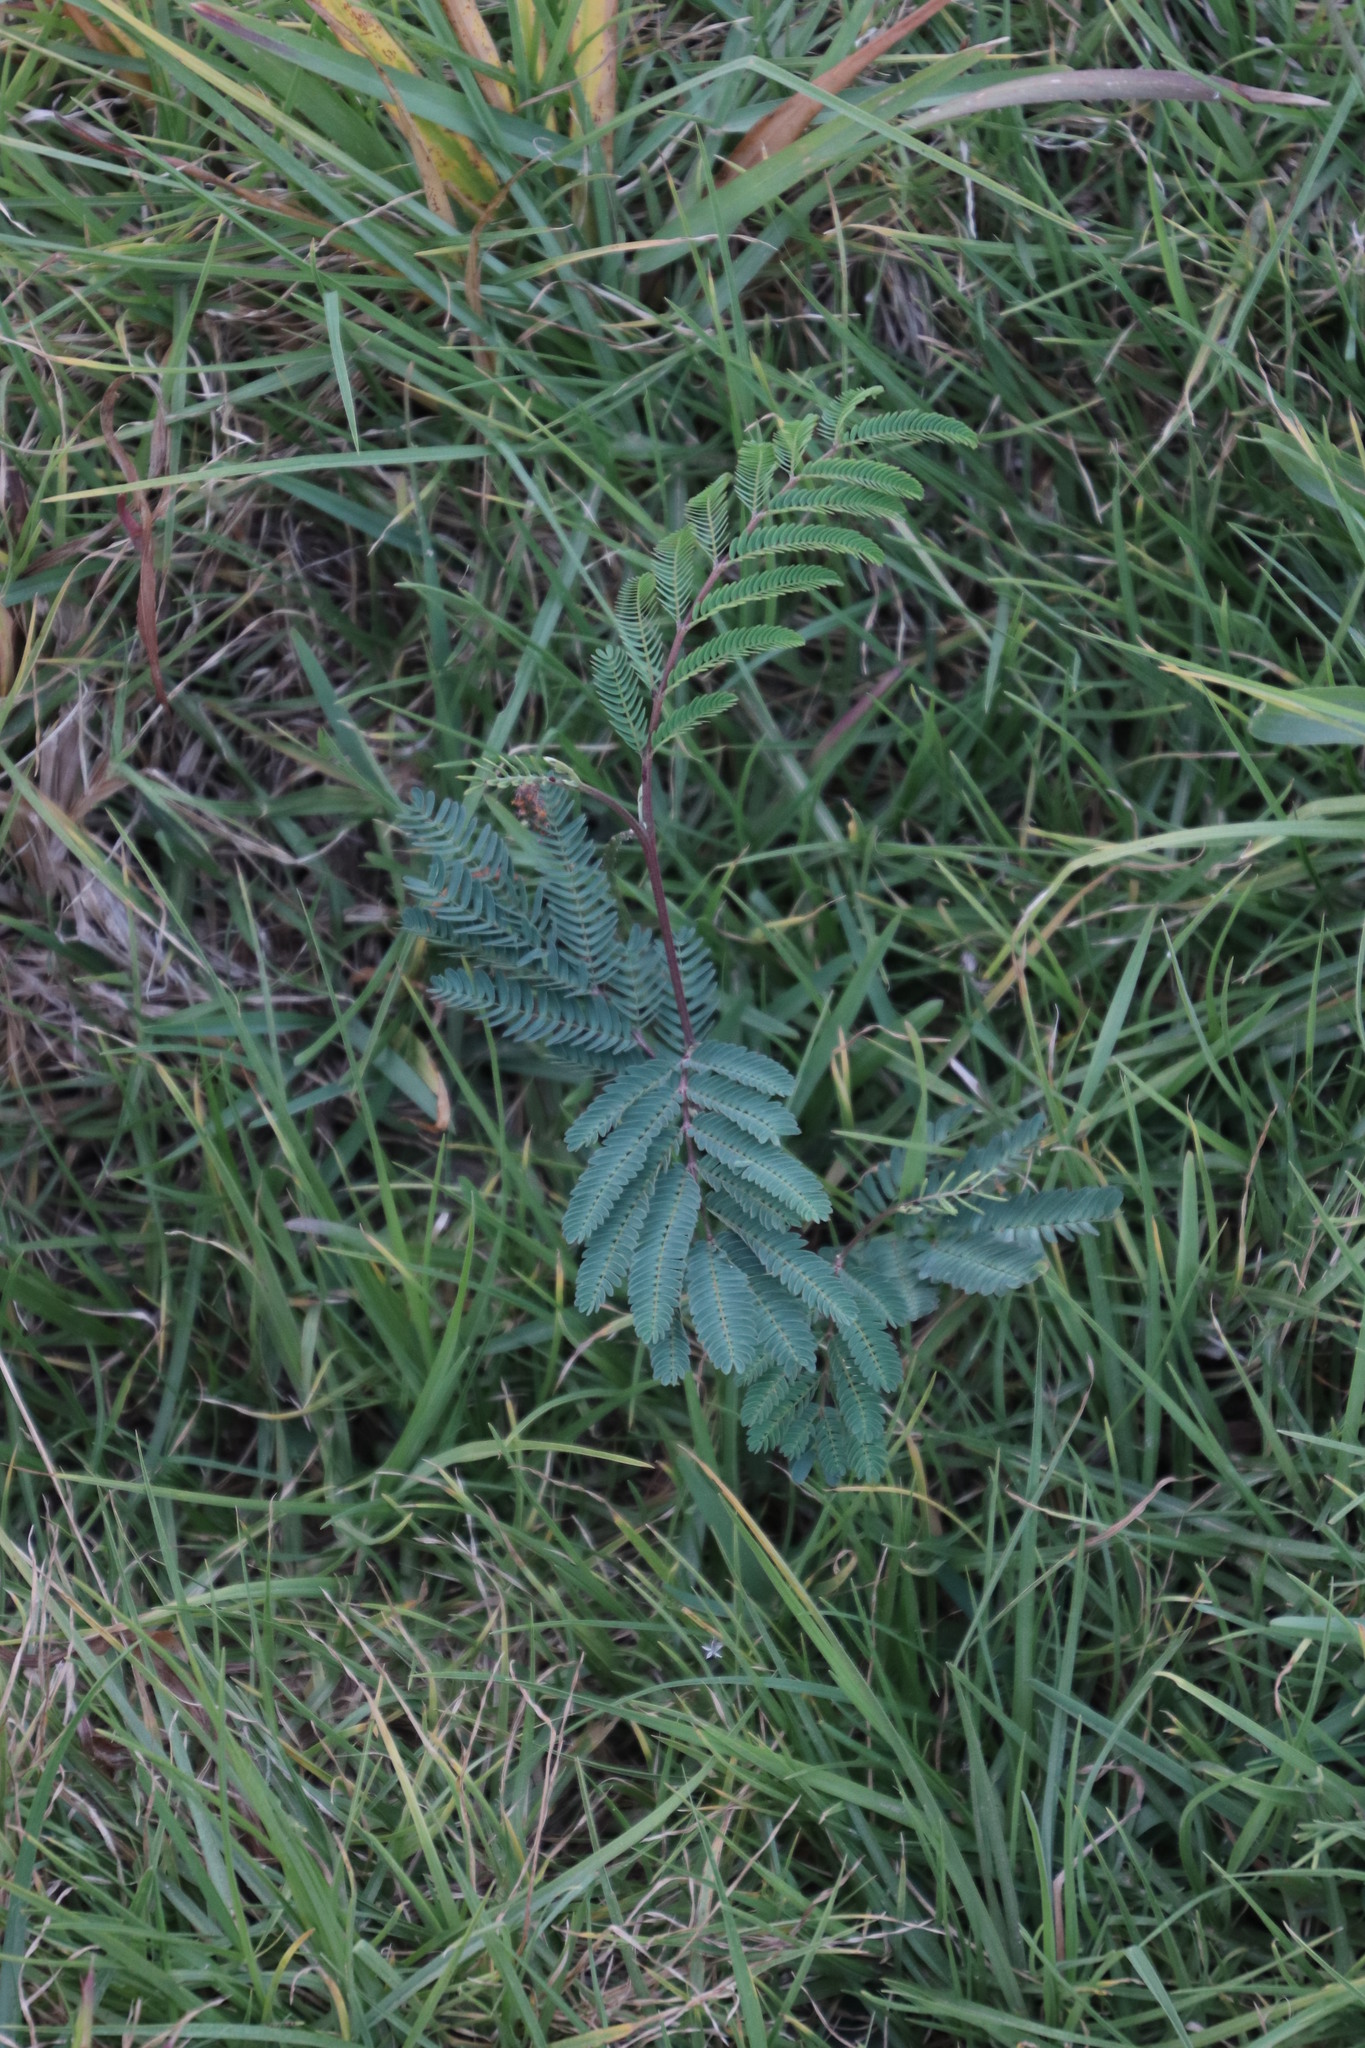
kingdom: Plantae
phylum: Tracheophyta
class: Magnoliopsida
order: Fabales
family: Fabaceae
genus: Paraserianthes
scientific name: Paraserianthes lophantha
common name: Plume albizia
